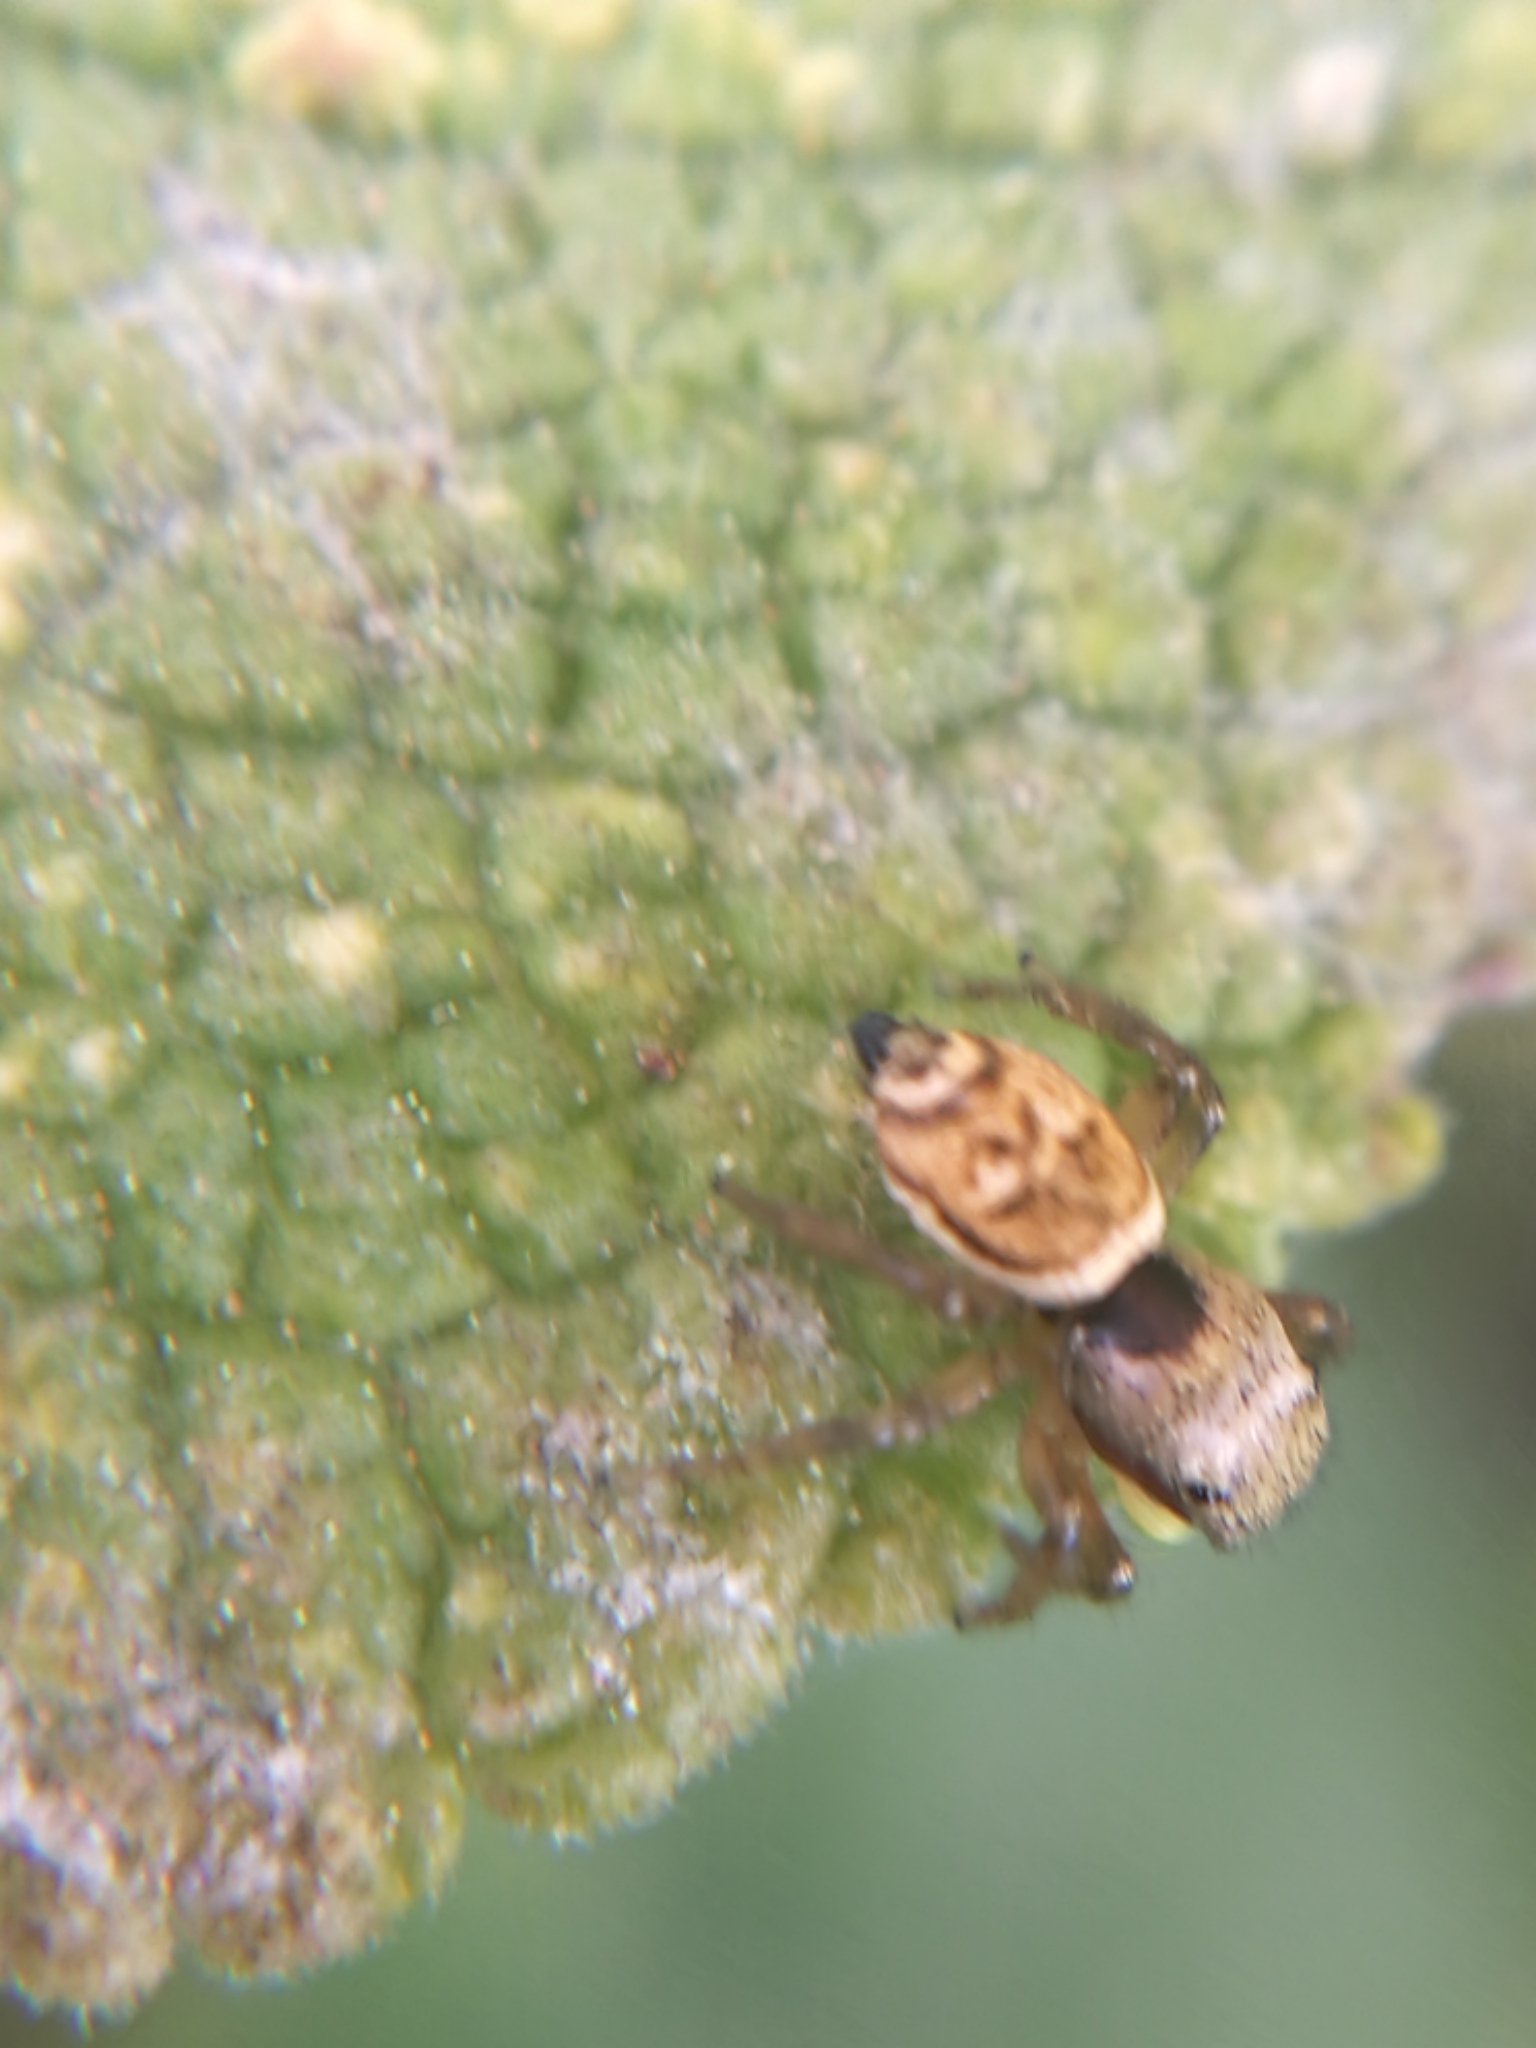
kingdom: Animalia
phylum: Arthropoda
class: Arachnida
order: Araneae
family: Salticidae
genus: Heliophanus
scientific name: Heliophanus tribulosus
